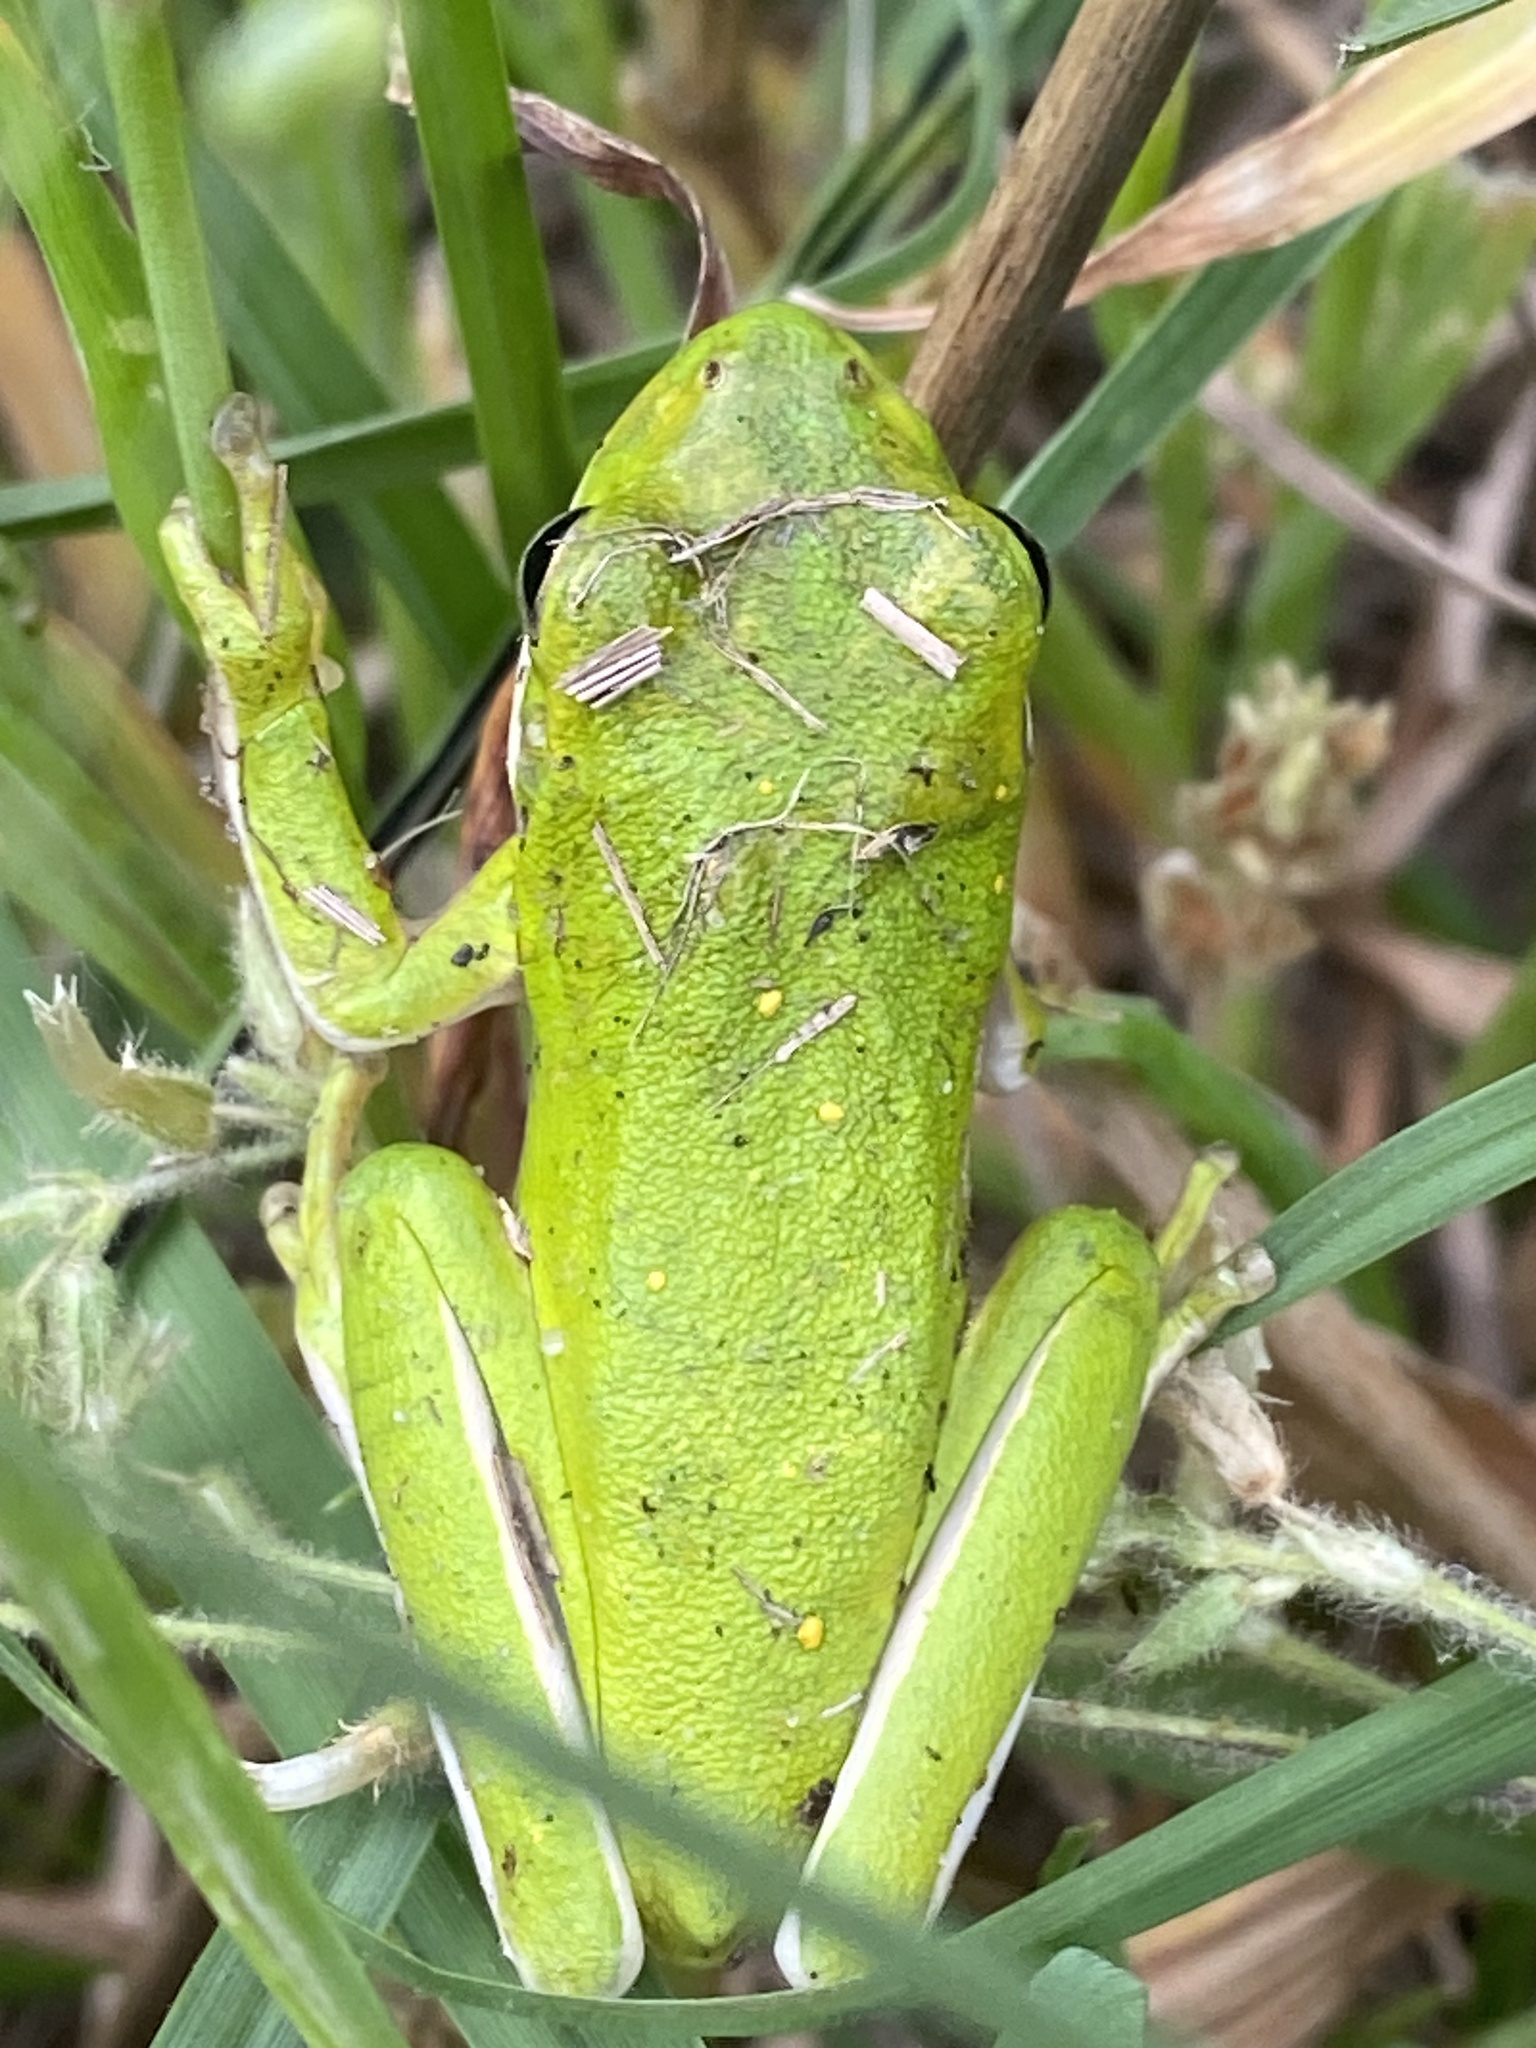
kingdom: Animalia
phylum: Chordata
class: Amphibia
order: Anura
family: Hylidae
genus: Dryophytes
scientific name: Dryophytes cinereus
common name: Green treefrog
